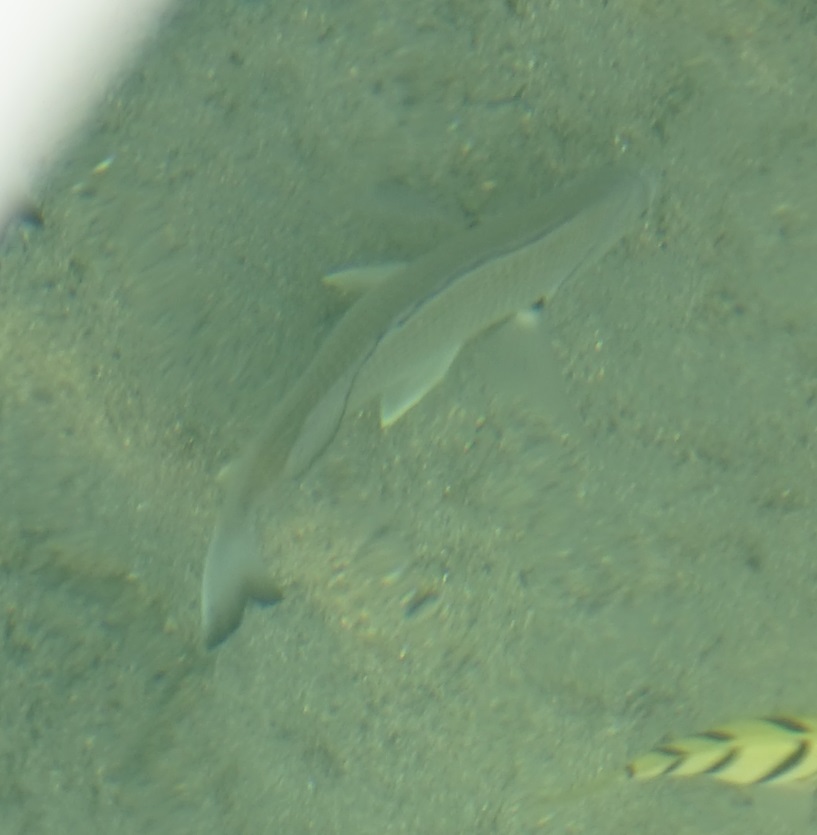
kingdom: Animalia
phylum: Chordata
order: Perciformes
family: Sparidae
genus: Acanthopagrus
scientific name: Acanthopagrus australis
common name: Surf bream
